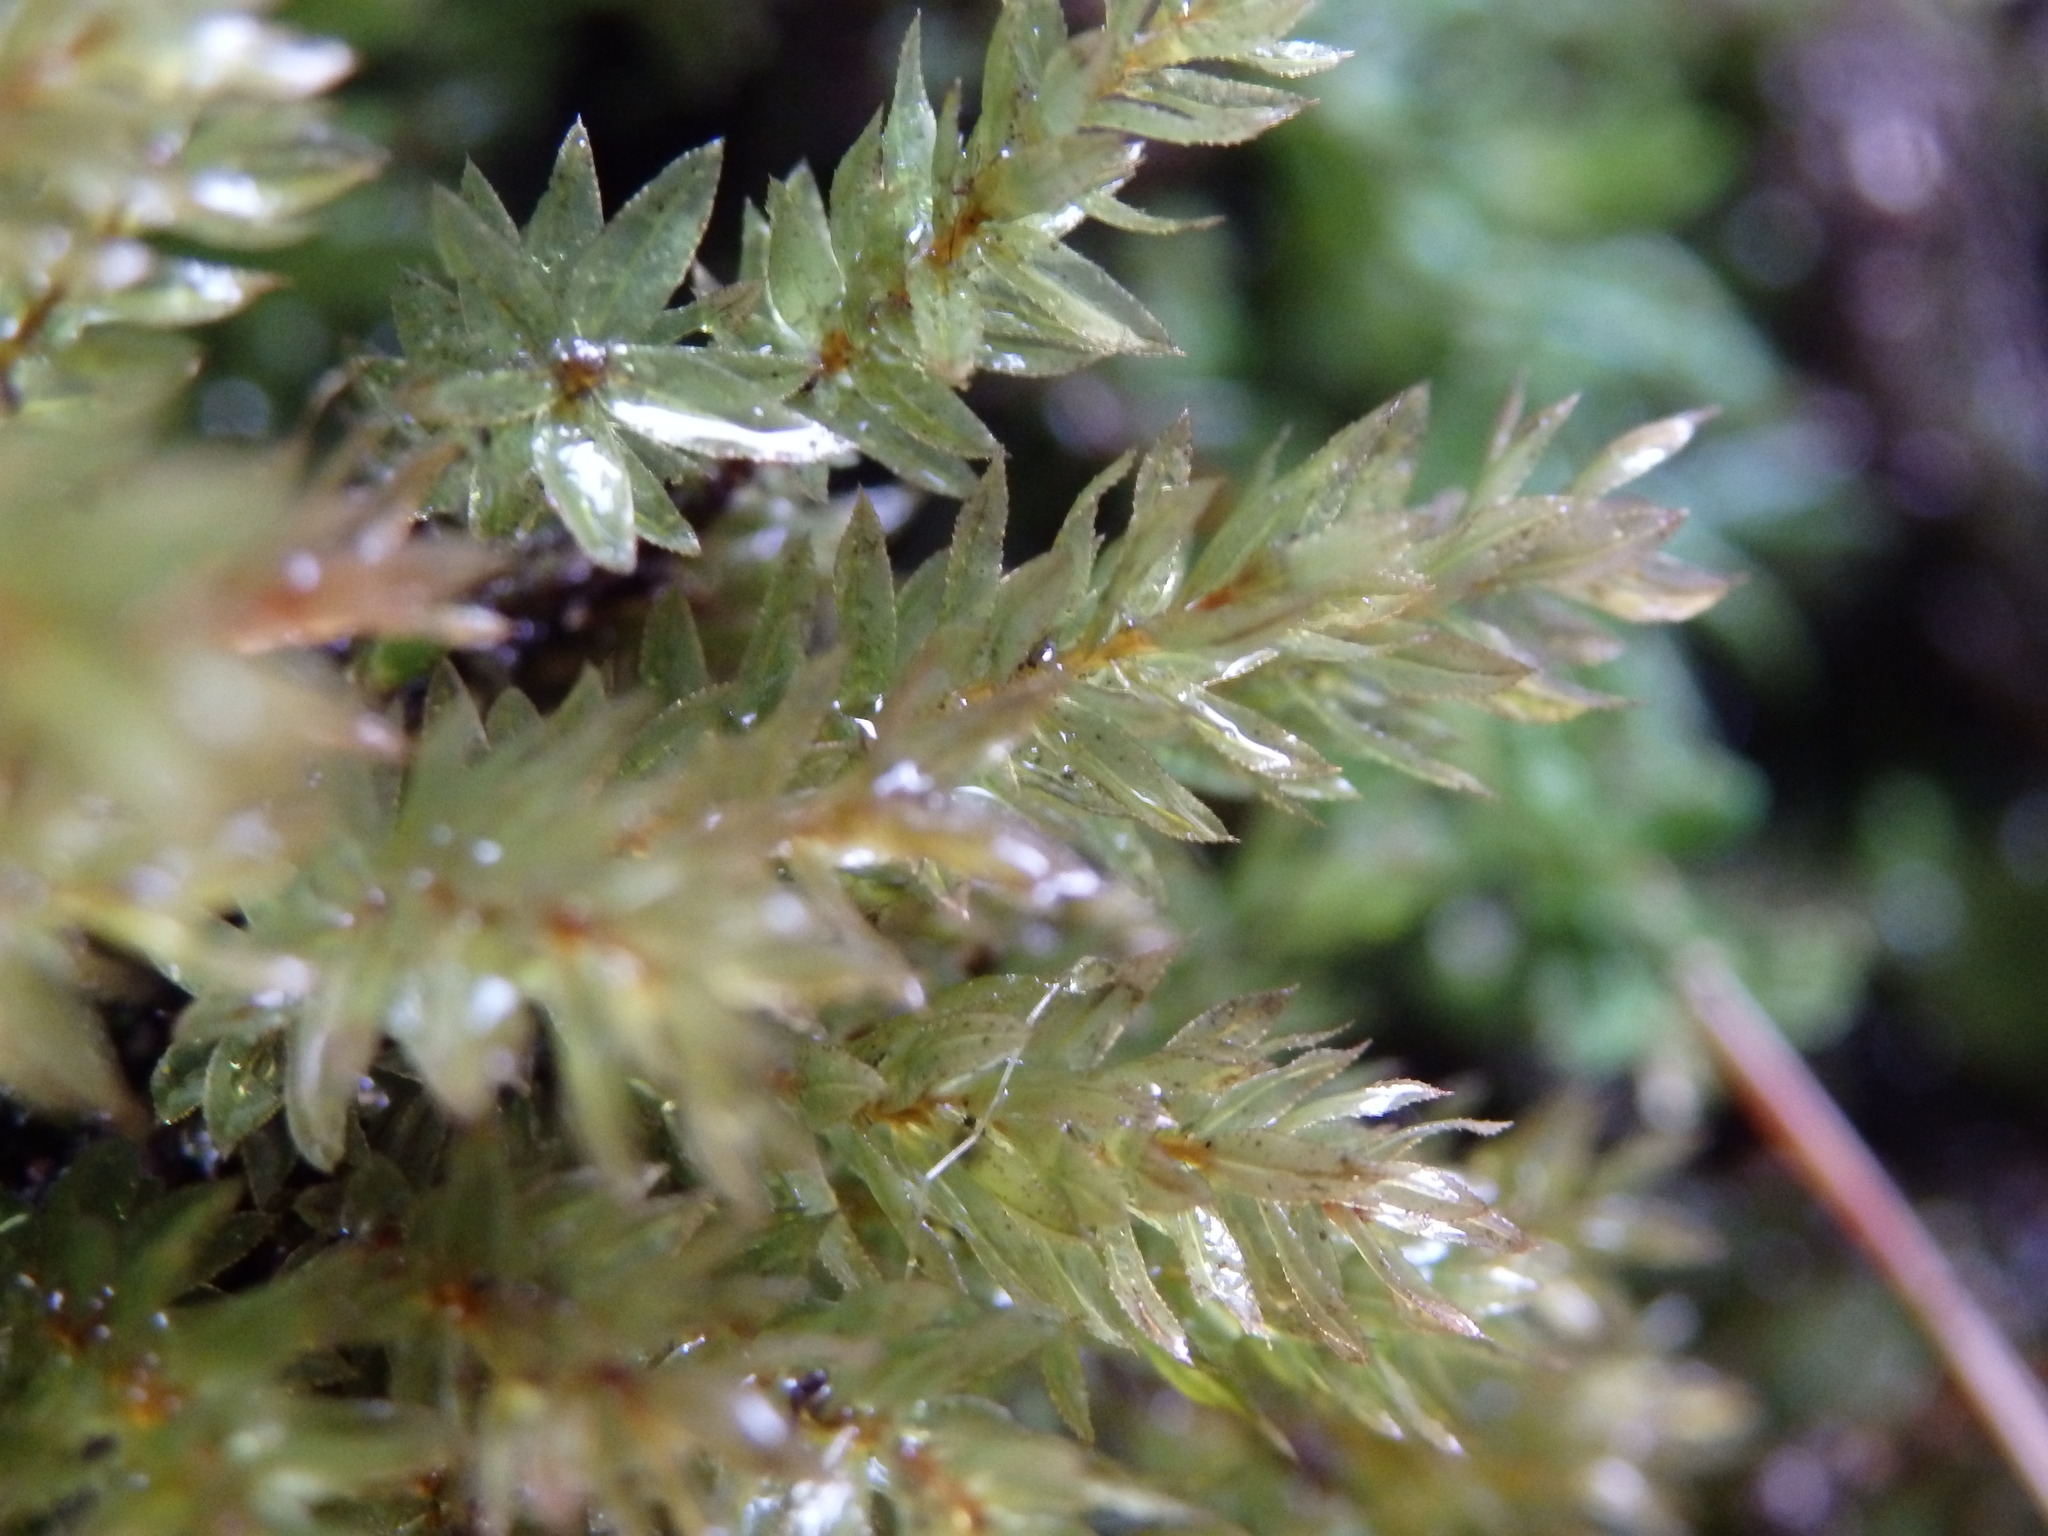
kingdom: Plantae
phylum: Bryophyta
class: Bryopsida
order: Bryales
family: Mniaceae
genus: Mnium
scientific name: Mnium hornum
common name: Swan's-neck leafy moss
